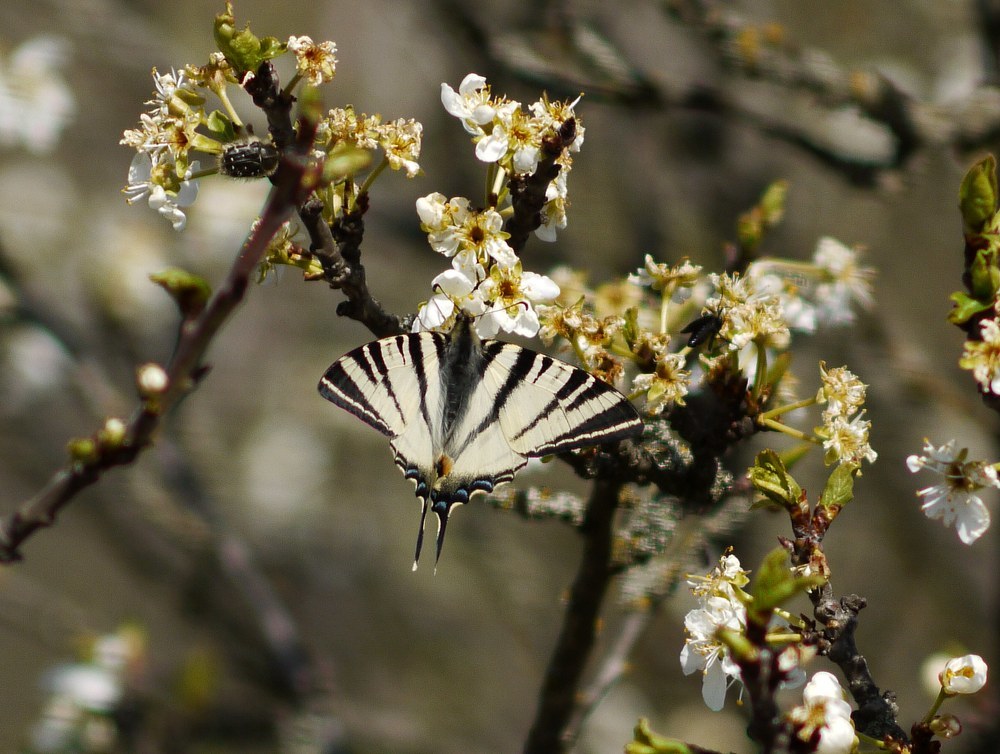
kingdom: Animalia
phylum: Arthropoda
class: Insecta
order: Lepidoptera
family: Papilionidae
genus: Iphiclides
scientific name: Iphiclides podalirius
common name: Scarce swallowtail
